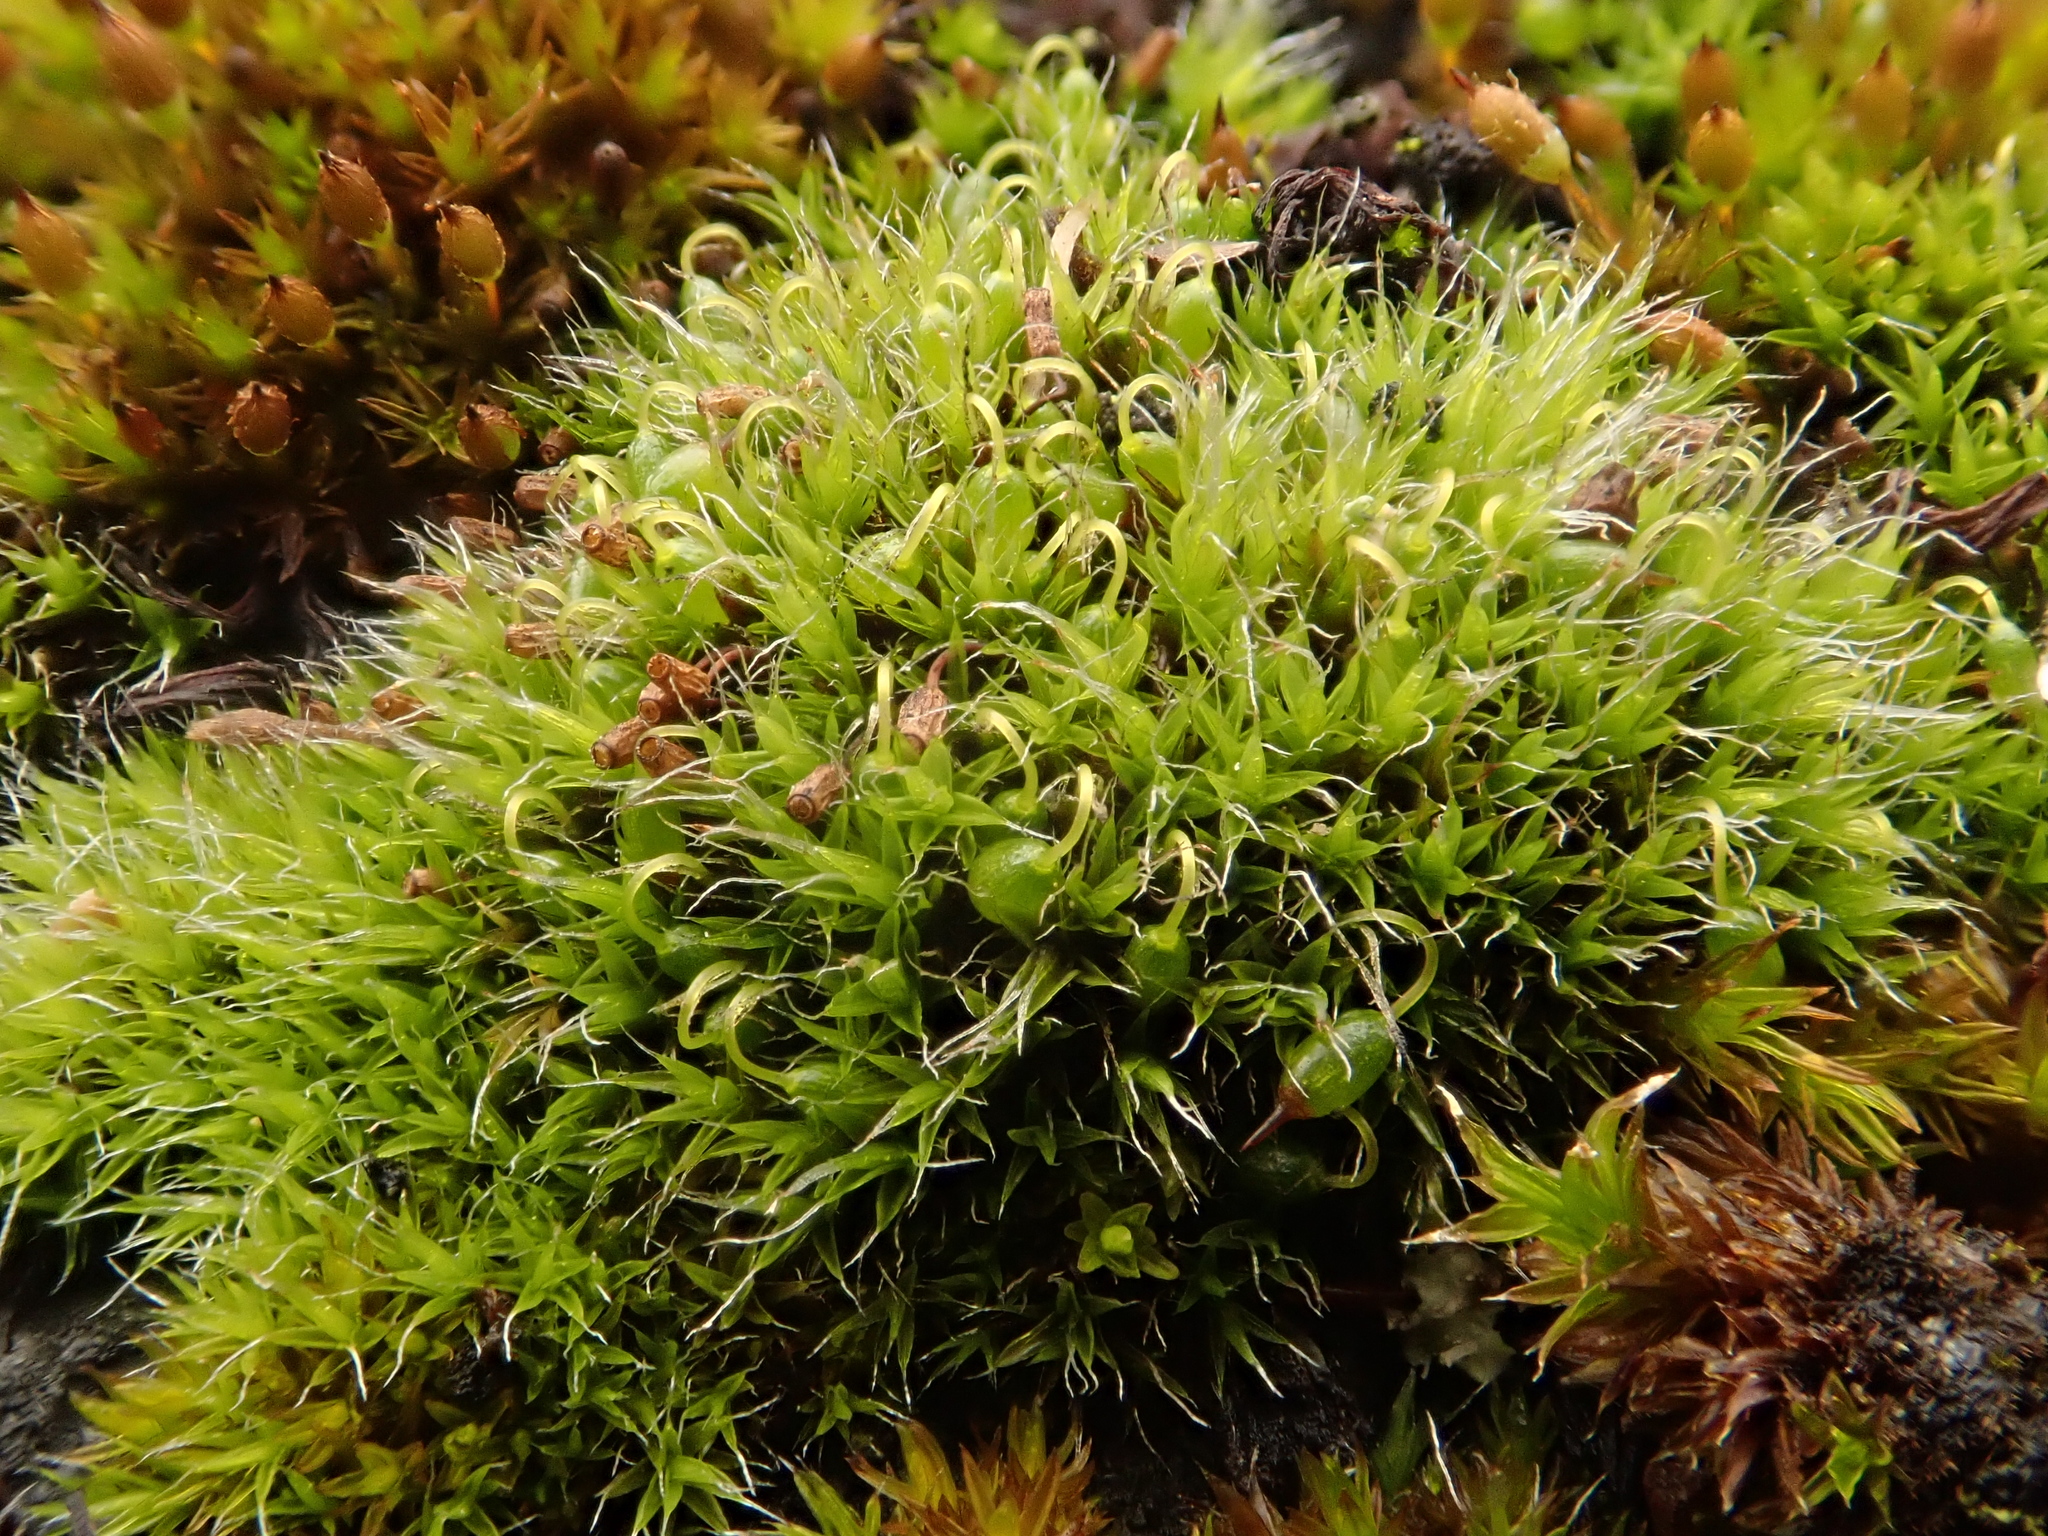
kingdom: Plantae
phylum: Bryophyta
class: Bryopsida
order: Grimmiales
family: Grimmiaceae
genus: Grimmia
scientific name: Grimmia pulvinata
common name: Grey-cushioned grimmia
